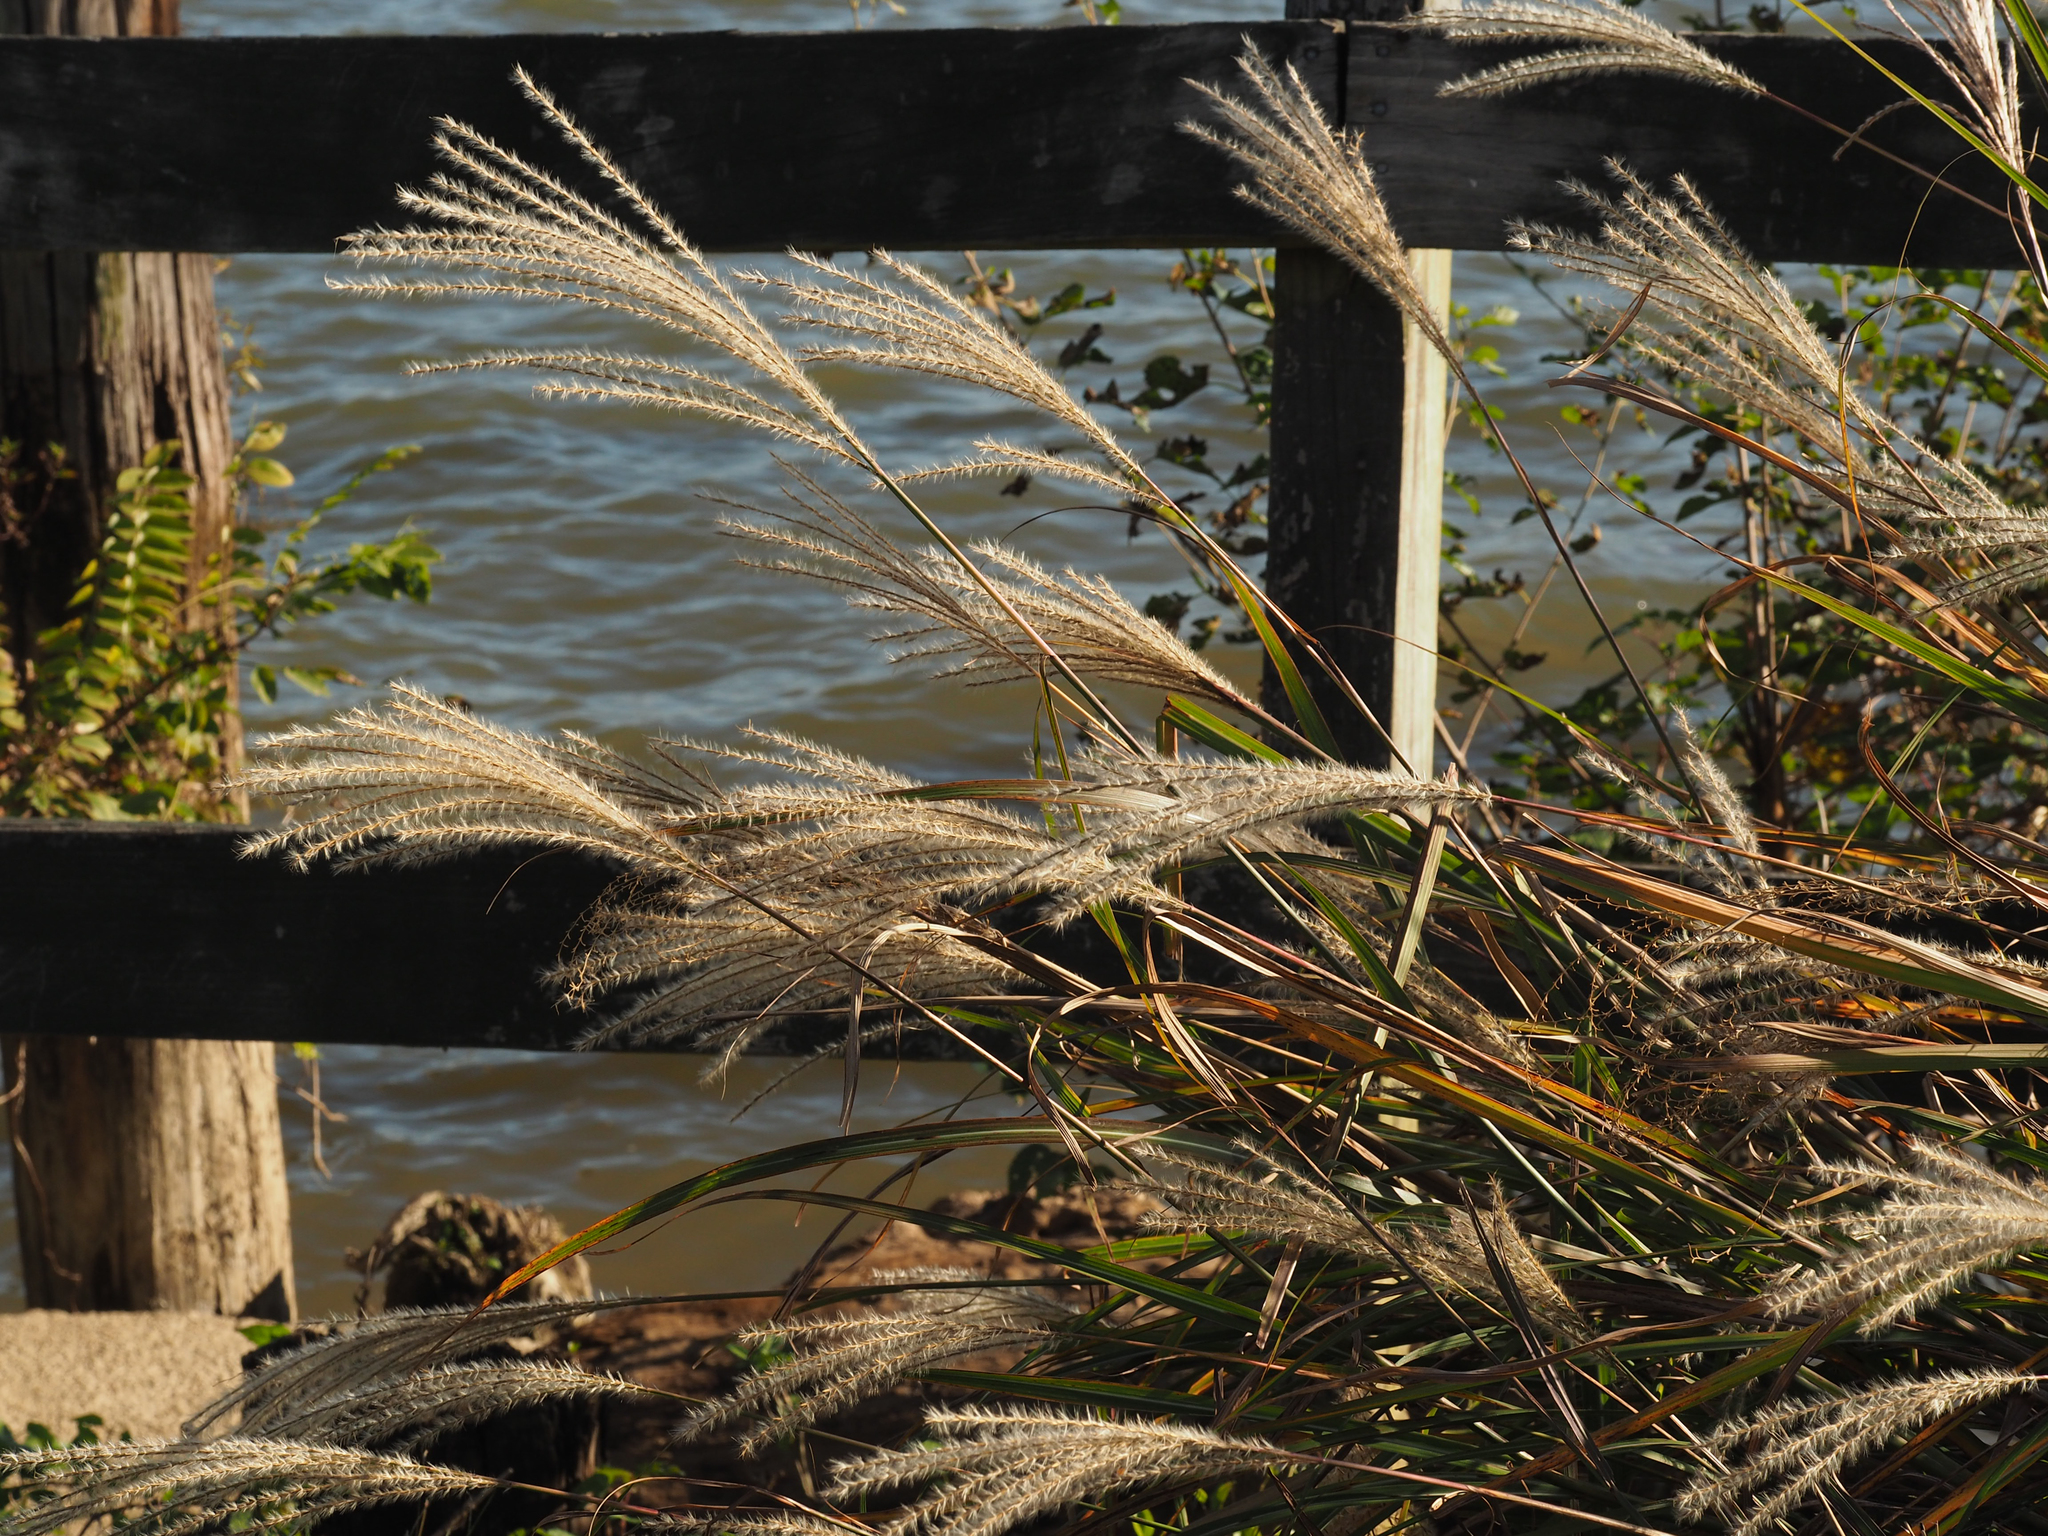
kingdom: Plantae
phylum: Tracheophyta
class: Liliopsida
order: Poales
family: Poaceae
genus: Miscanthus
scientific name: Miscanthus sinensis
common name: Chinese silvergrass
